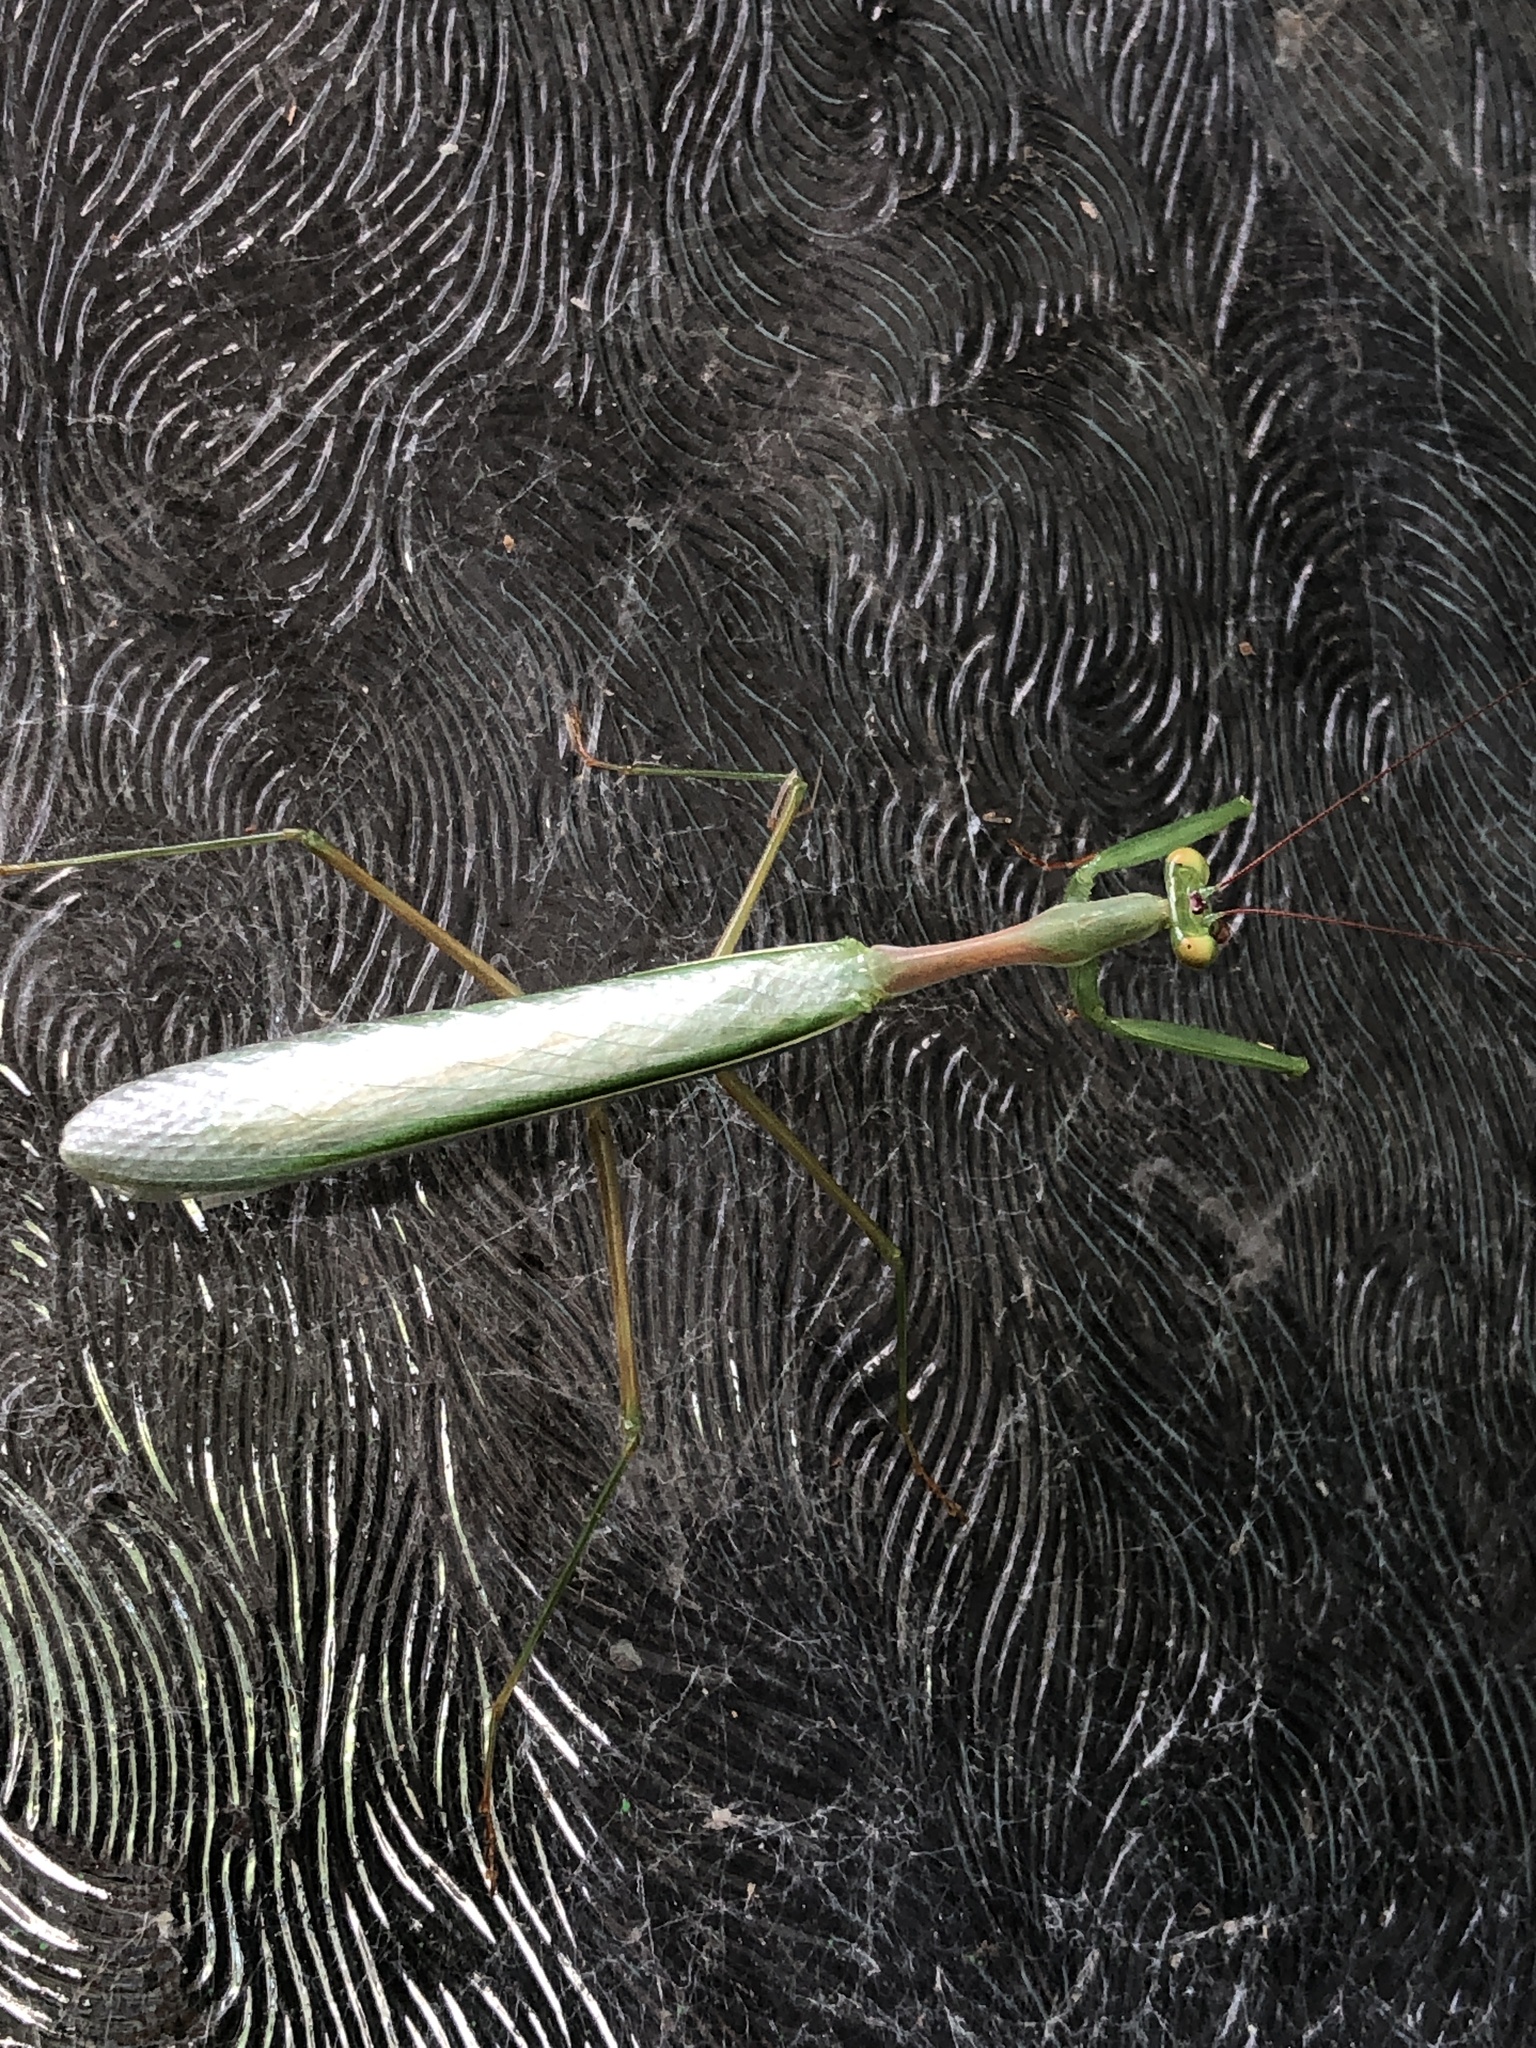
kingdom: Animalia
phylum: Arthropoda
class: Insecta
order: Mantodea
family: Miomantidae
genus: Miomantis
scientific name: Miomantis caffra
